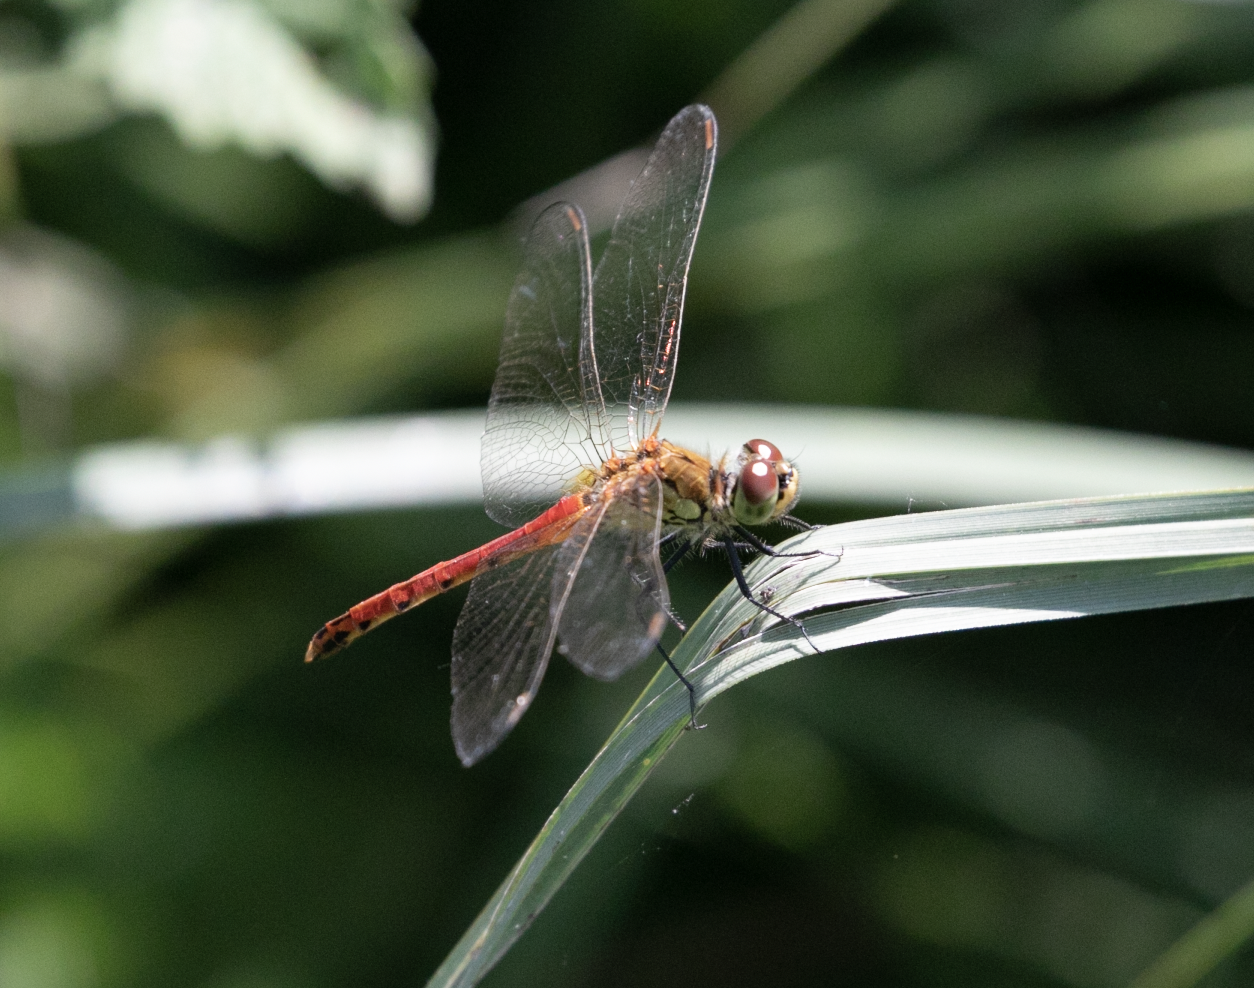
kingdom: Animalia
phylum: Arthropoda
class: Insecta
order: Odonata
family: Libellulidae
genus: Sympetrum
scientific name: Sympetrum depressiusculum
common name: Spotted darter
